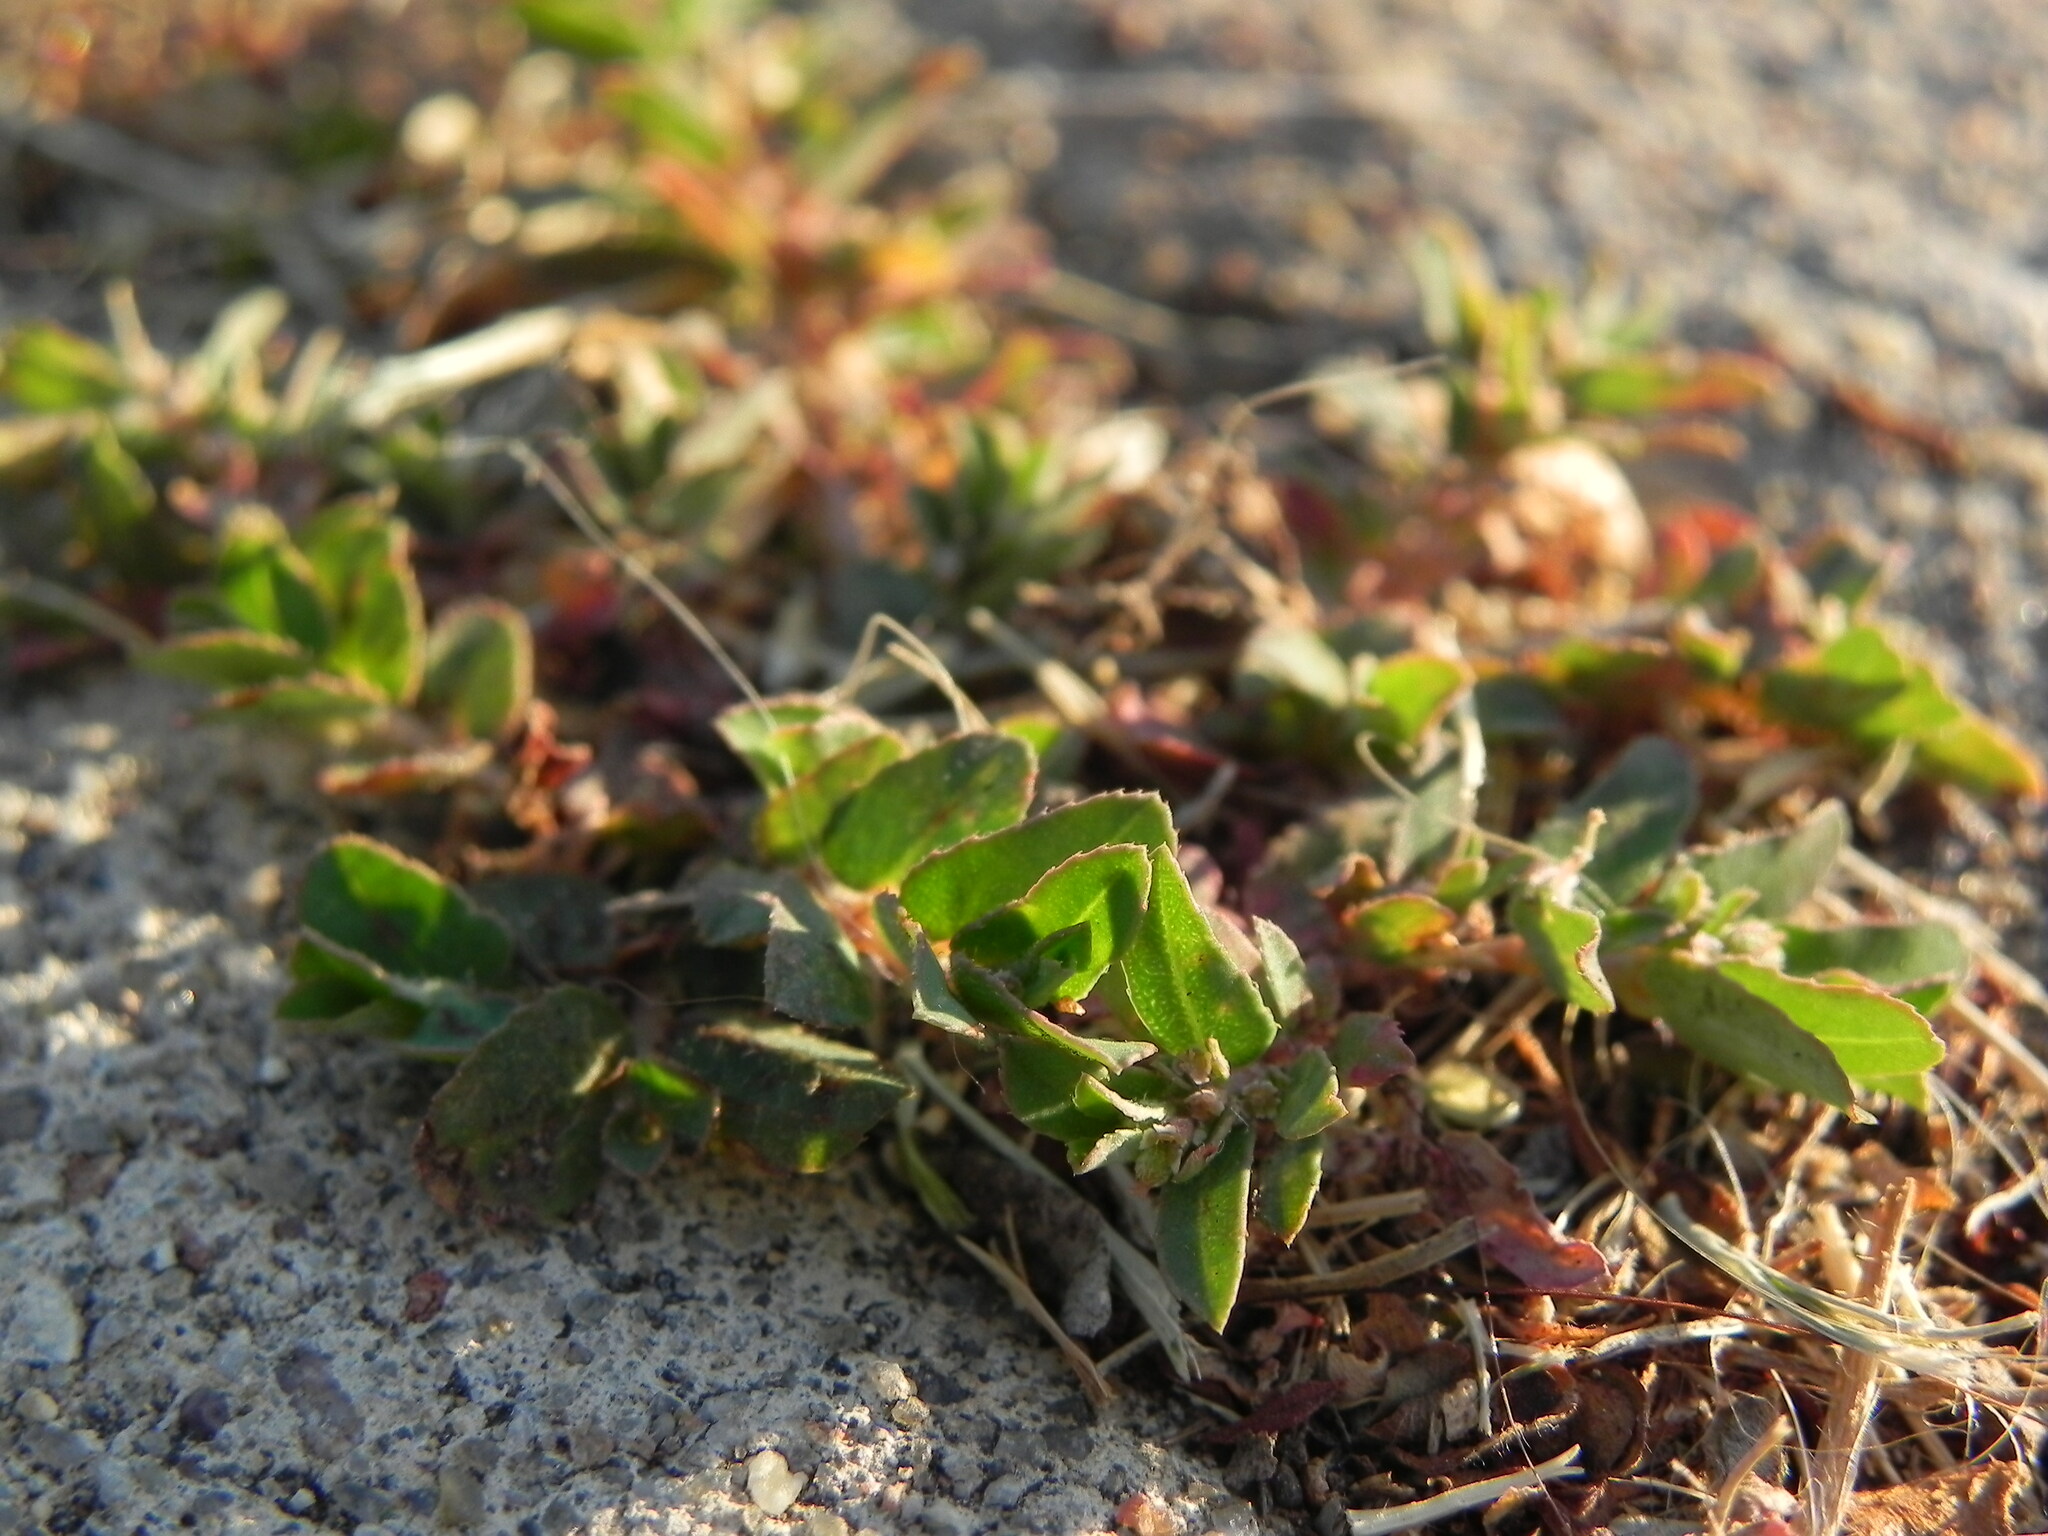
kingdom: Plantae
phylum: Tracheophyta
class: Magnoliopsida
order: Malpighiales
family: Euphorbiaceae
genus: Euphorbia
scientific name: Euphorbia maculata
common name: Spotted spurge
